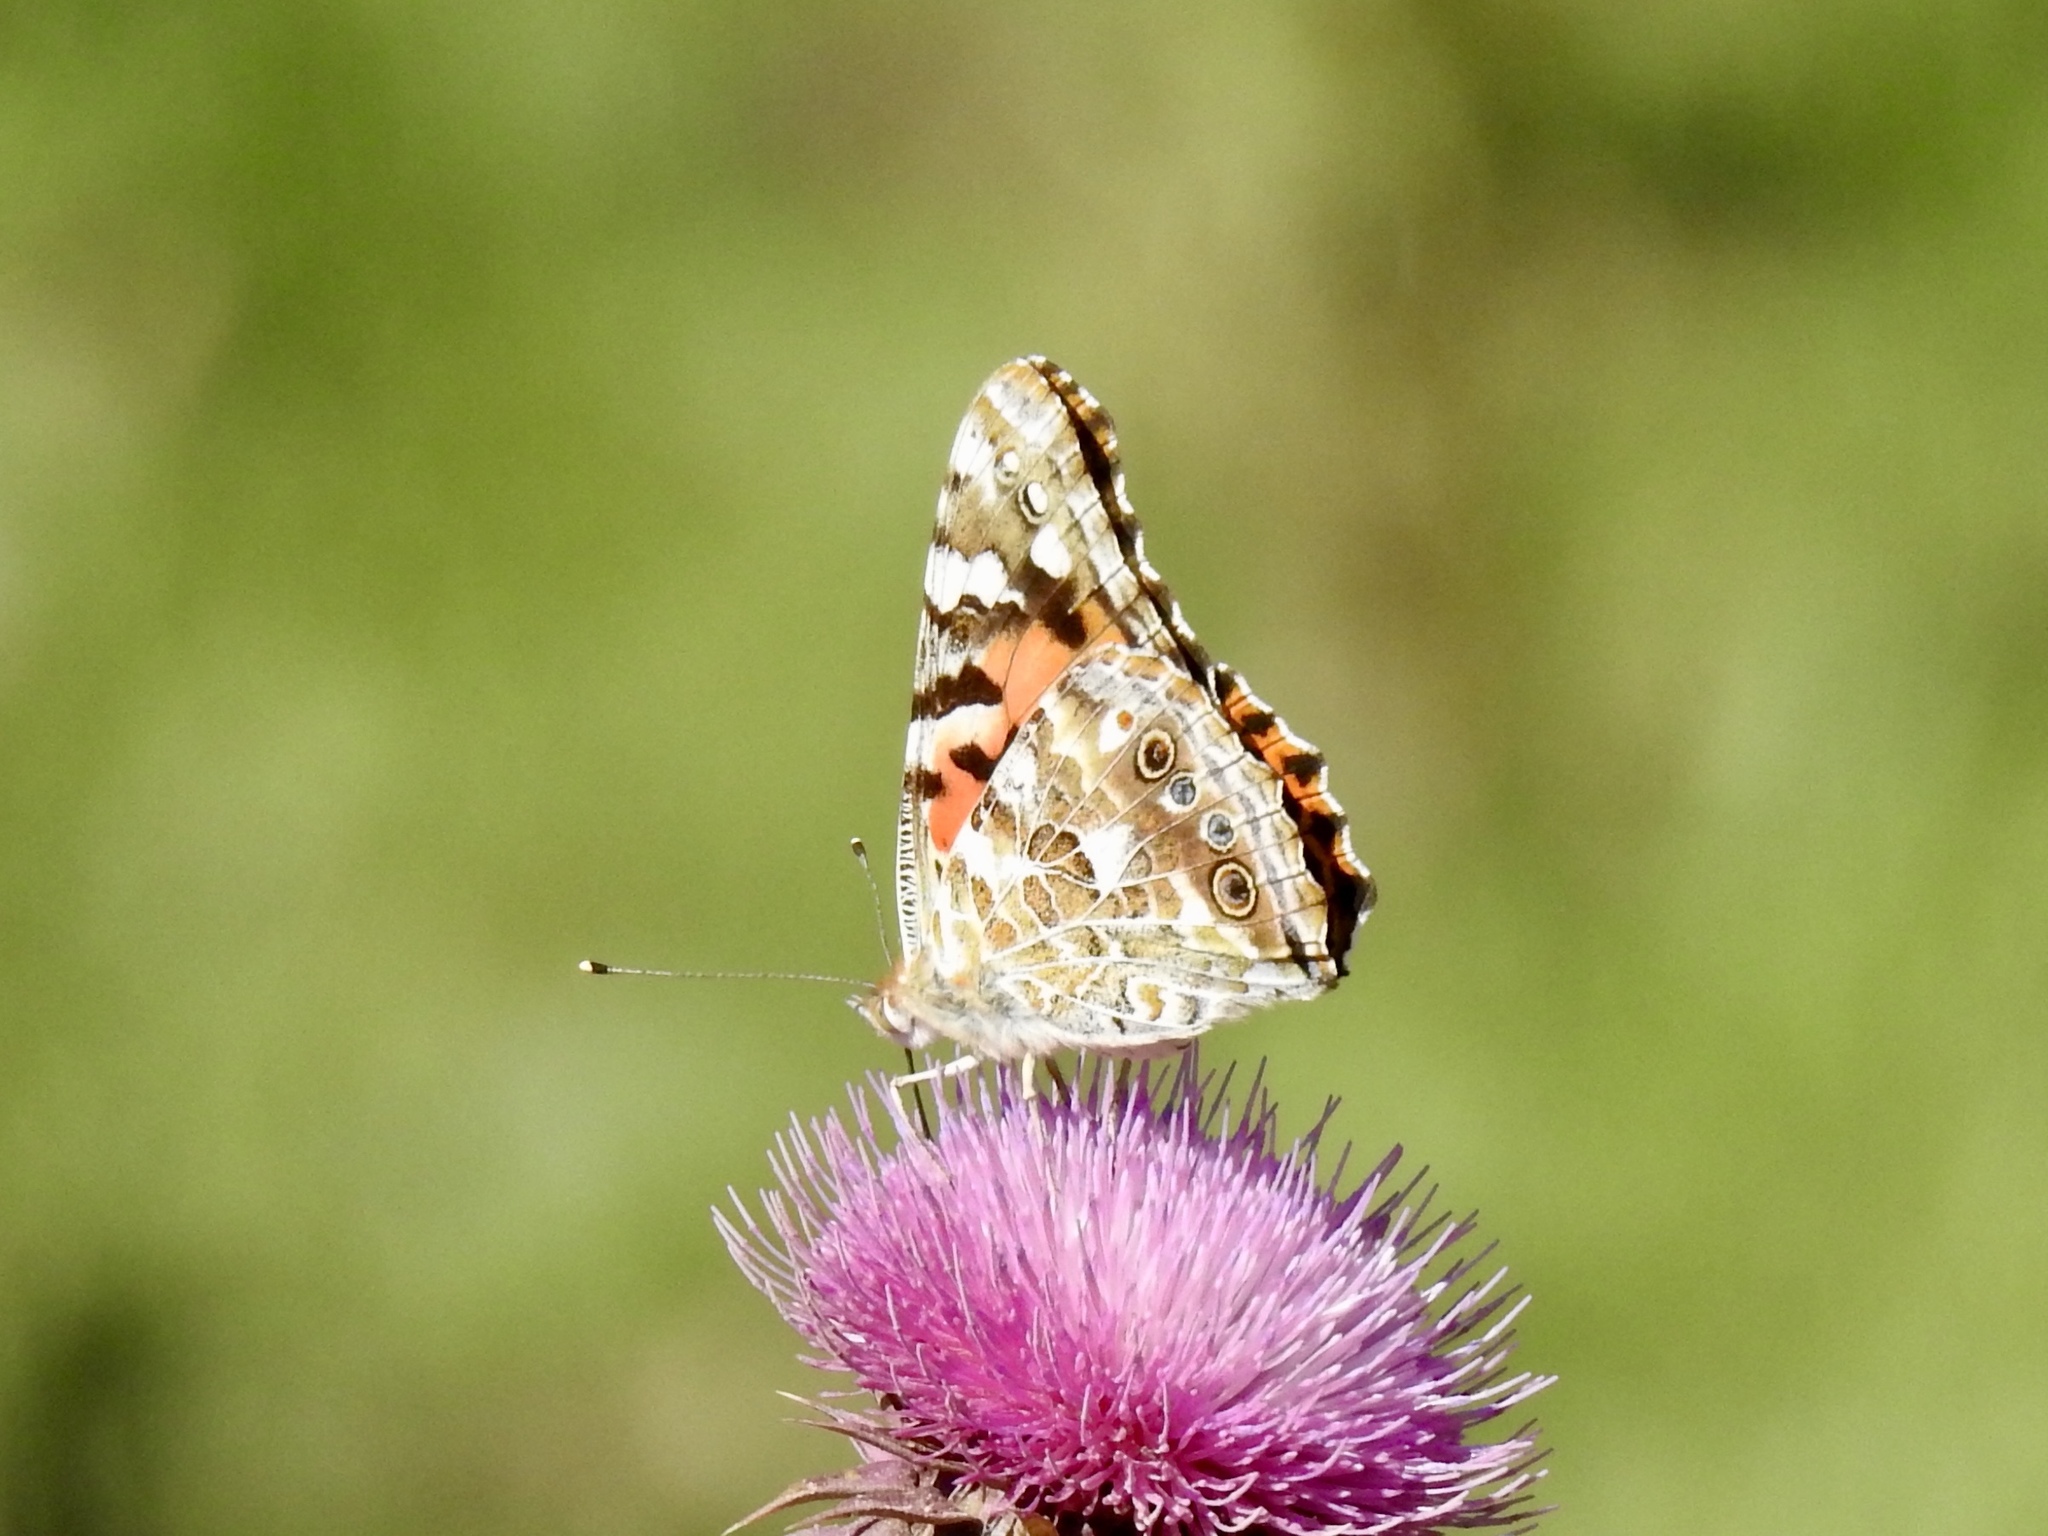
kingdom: Animalia
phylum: Arthropoda
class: Insecta
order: Lepidoptera
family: Nymphalidae
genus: Vanessa
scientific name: Vanessa cardui
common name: Painted lady
